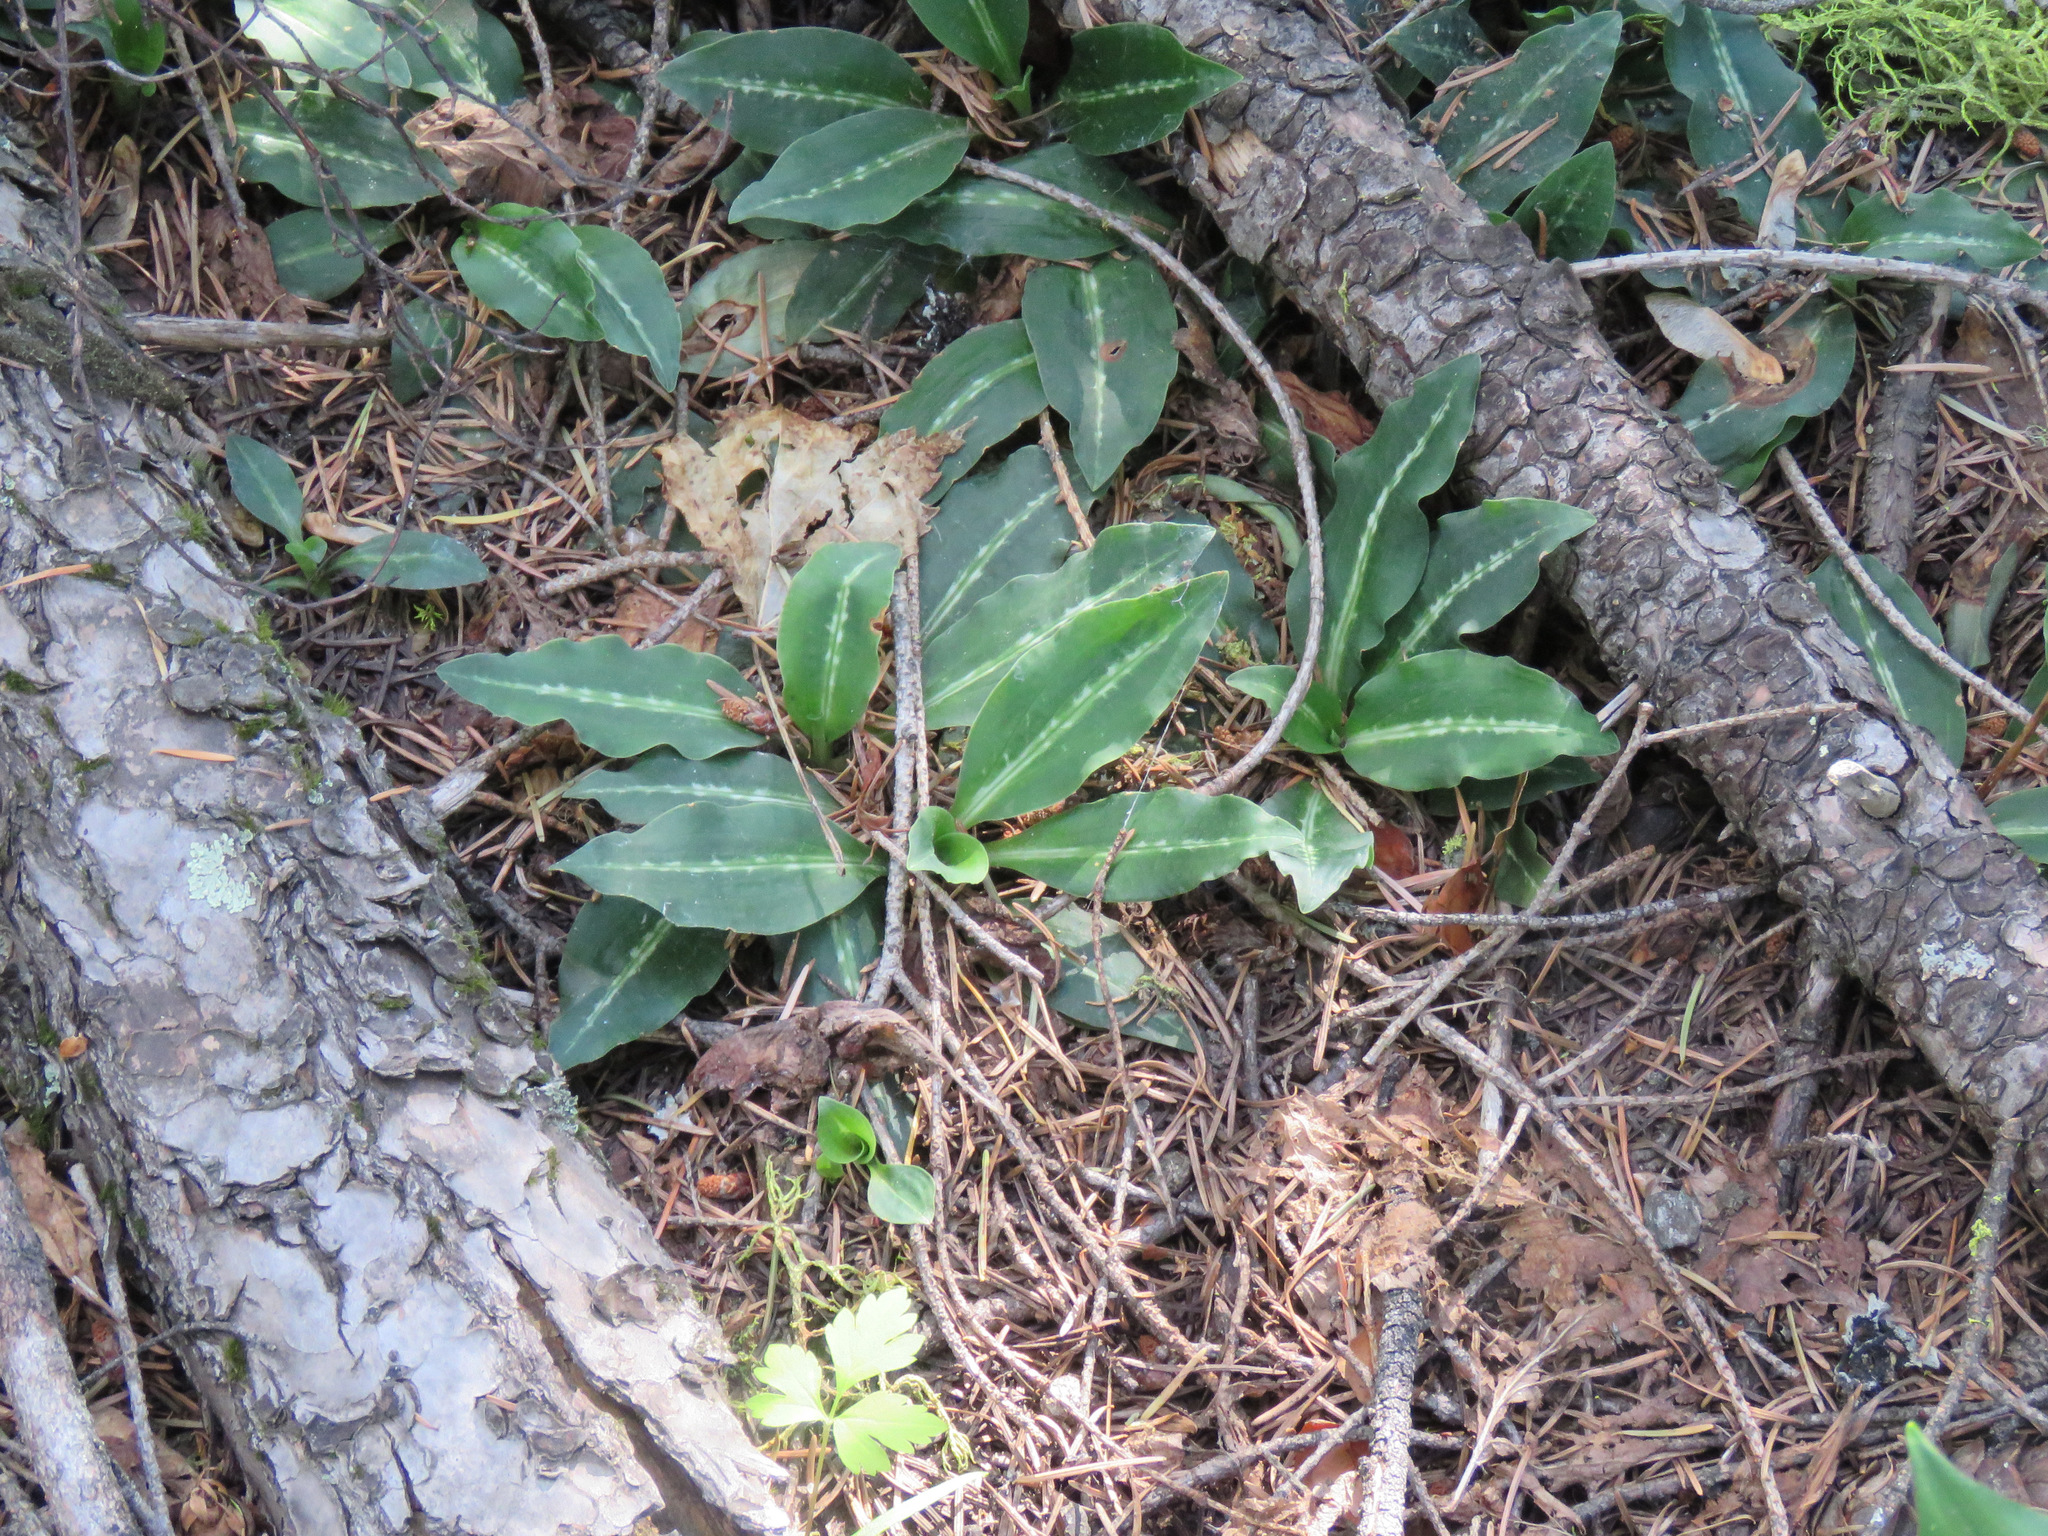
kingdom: Plantae
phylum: Tracheophyta
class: Liliopsida
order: Asparagales
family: Orchidaceae
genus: Goodyera
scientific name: Goodyera oblongifolia
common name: Giant rattlesnake-plantain
